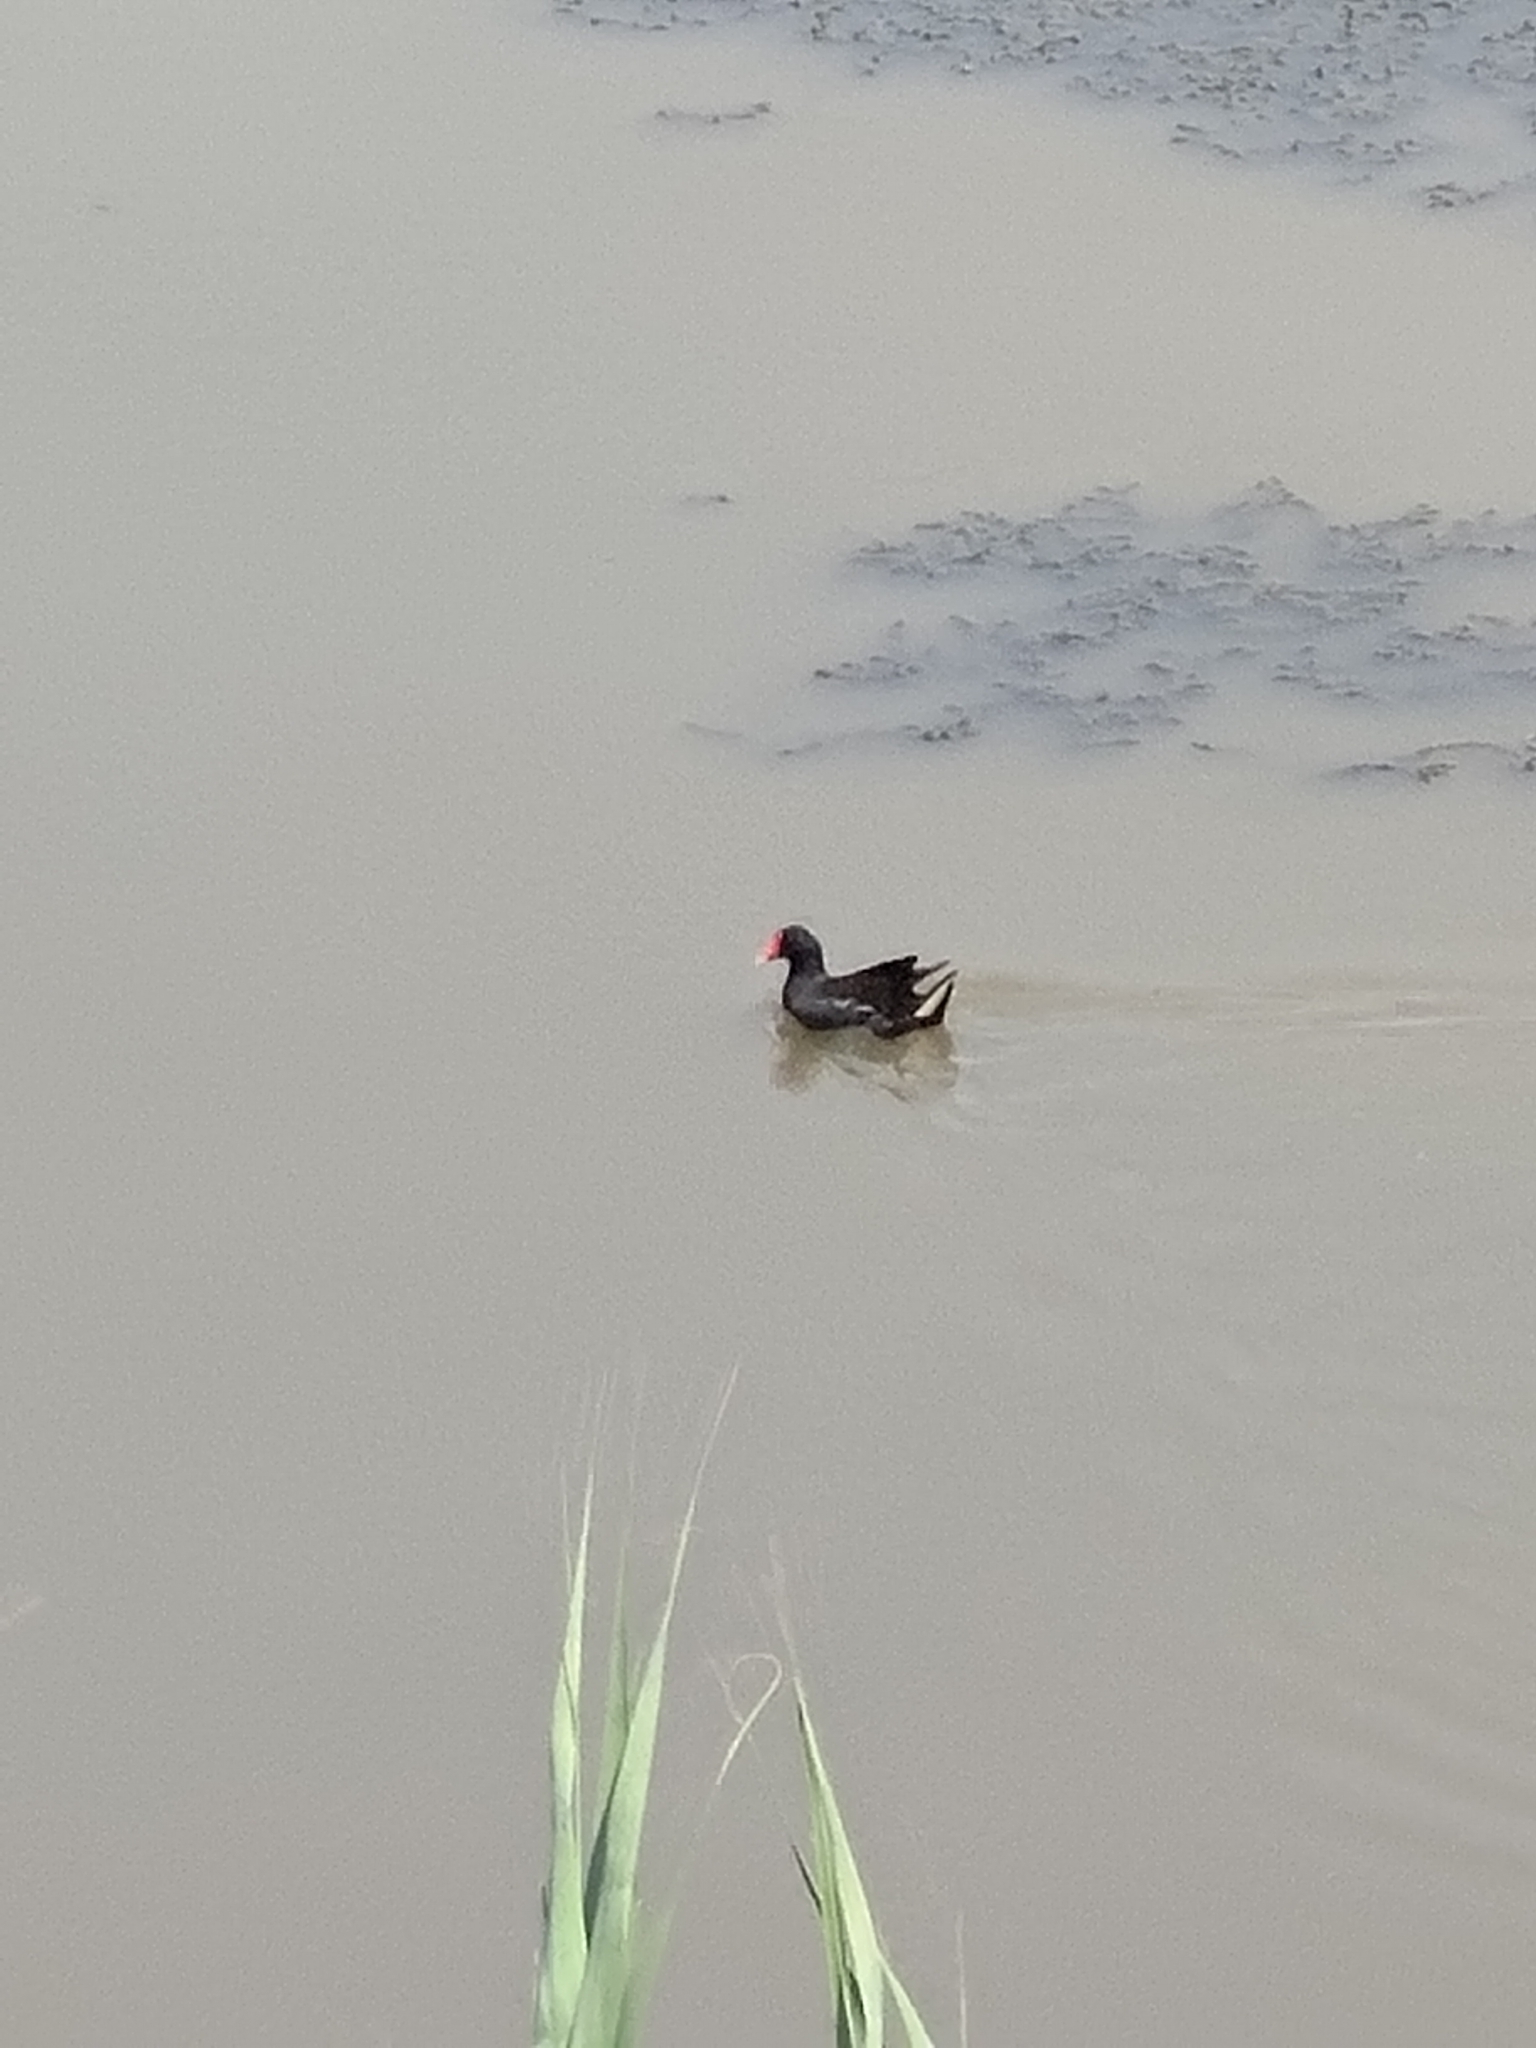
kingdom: Animalia
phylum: Chordata
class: Aves
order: Gruiformes
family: Rallidae
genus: Gallinula
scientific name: Gallinula chloropus
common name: Common moorhen
